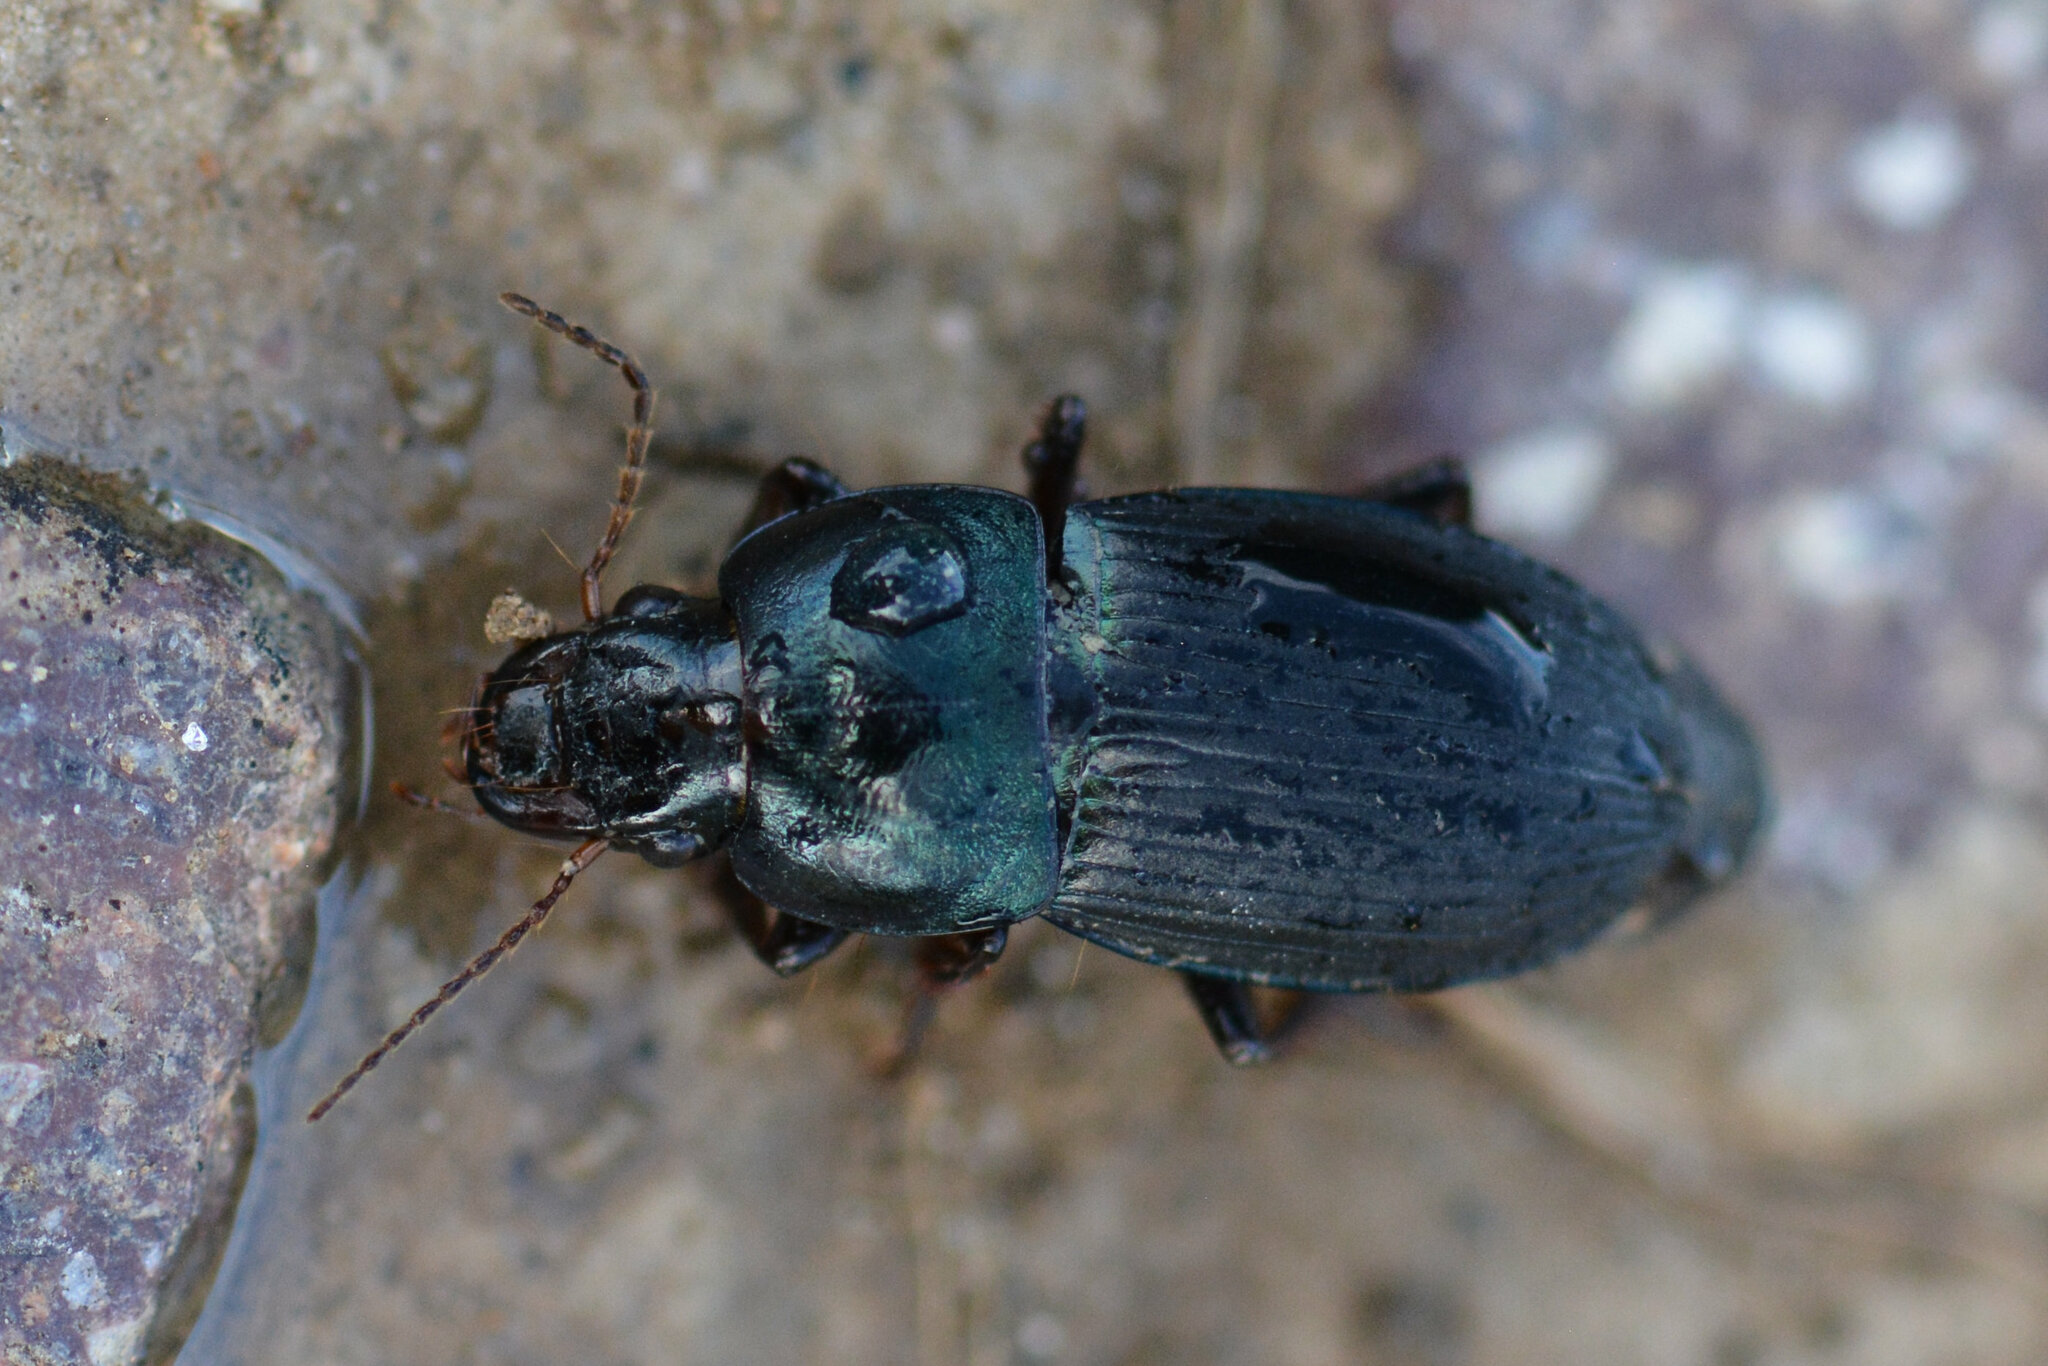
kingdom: Animalia
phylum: Arthropoda
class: Insecta
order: Coleoptera
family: Carabidae
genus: Harpalus
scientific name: Harpalus dimidiatus
